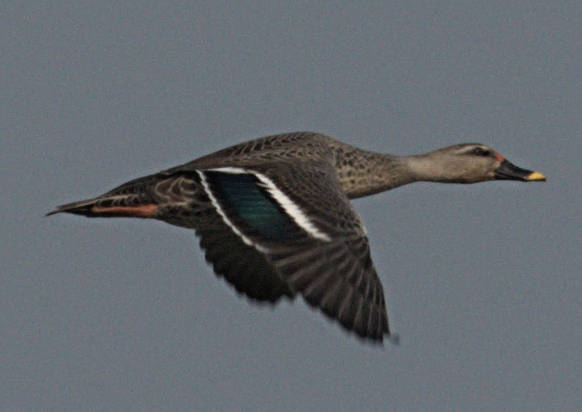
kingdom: Animalia
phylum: Chordata
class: Aves
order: Anseriformes
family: Anatidae
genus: Anas
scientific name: Anas poecilorhyncha
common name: Indian spot-billed duck
